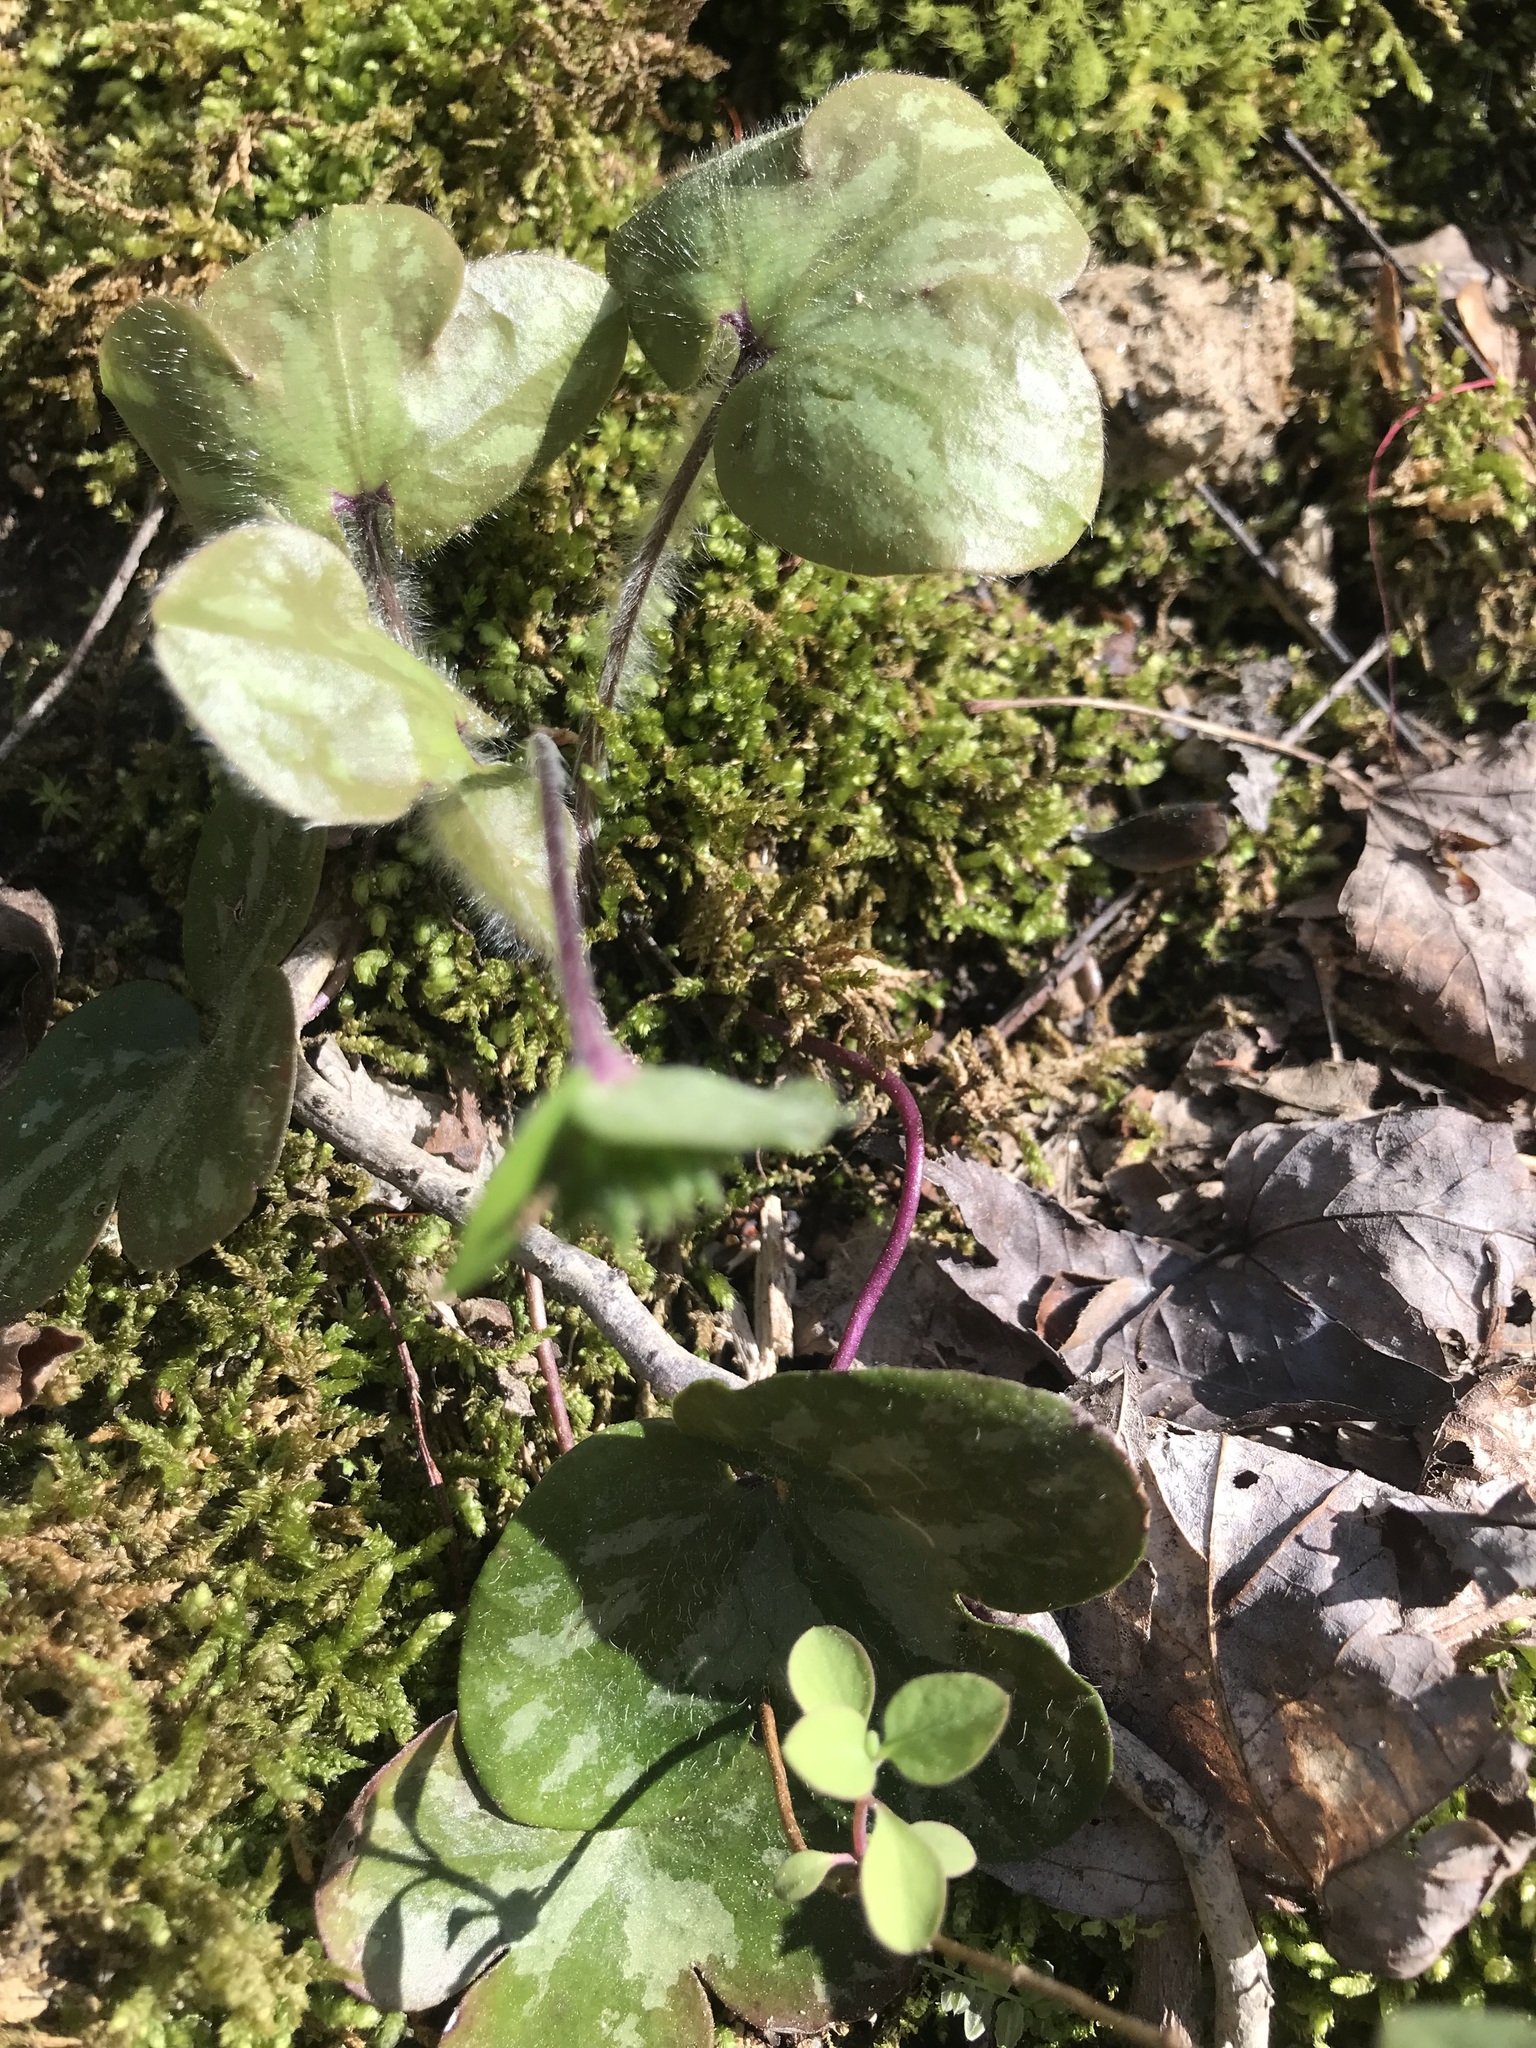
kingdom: Plantae
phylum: Tracheophyta
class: Magnoliopsida
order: Ranunculales
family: Ranunculaceae
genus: Hepatica
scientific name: Hepatica americana
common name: American hepatica
